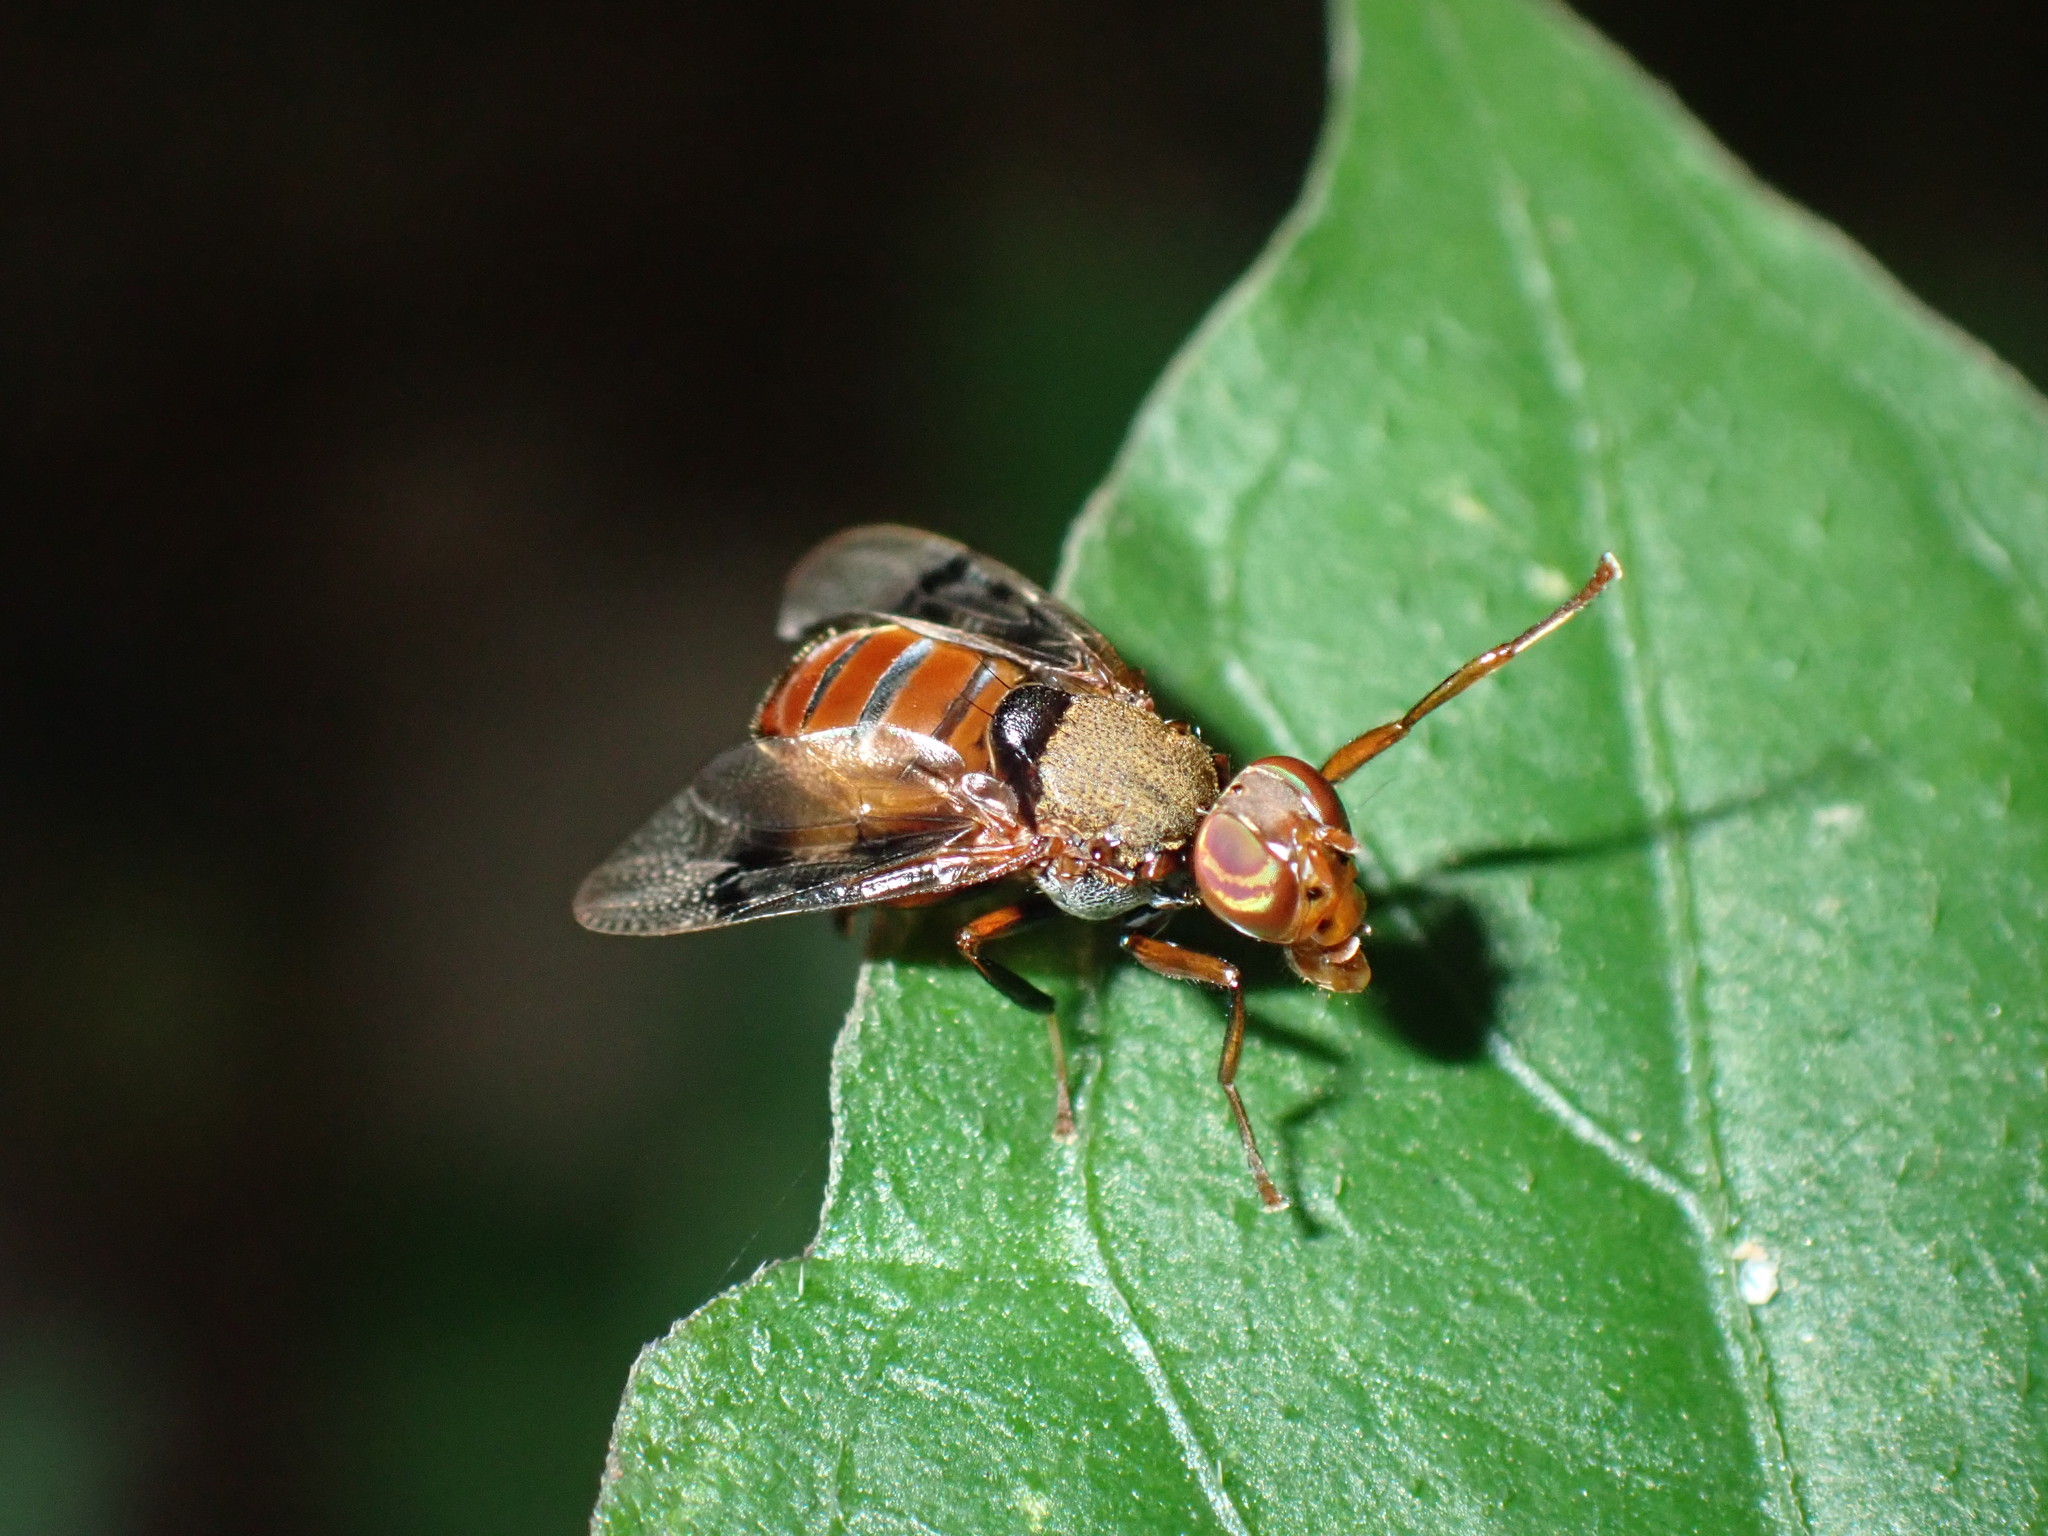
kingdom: Animalia
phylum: Arthropoda
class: Insecta
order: Diptera
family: Platystomatidae
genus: Valonia
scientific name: Valonia complicata
